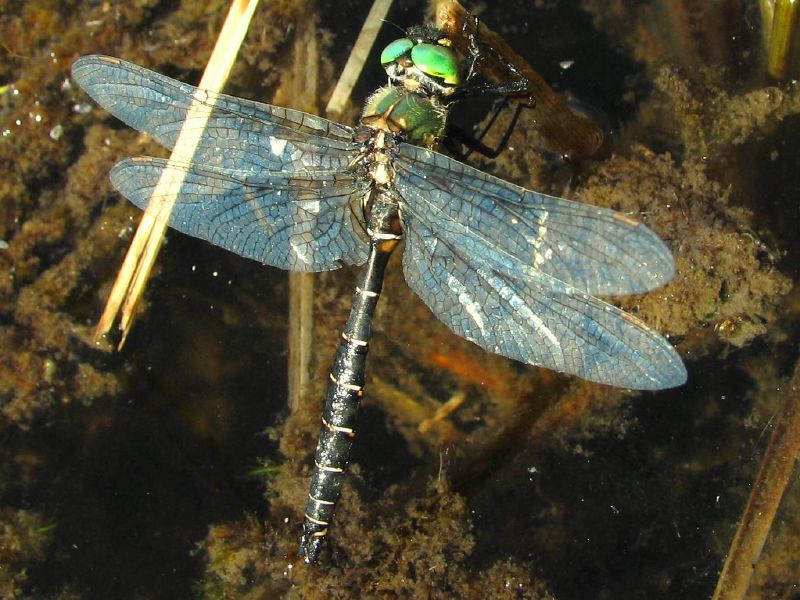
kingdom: Animalia
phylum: Arthropoda
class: Insecta
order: Odonata
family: Corduliidae
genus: Somatochlora
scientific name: Somatochlora albicincta
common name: Ringed emerald
